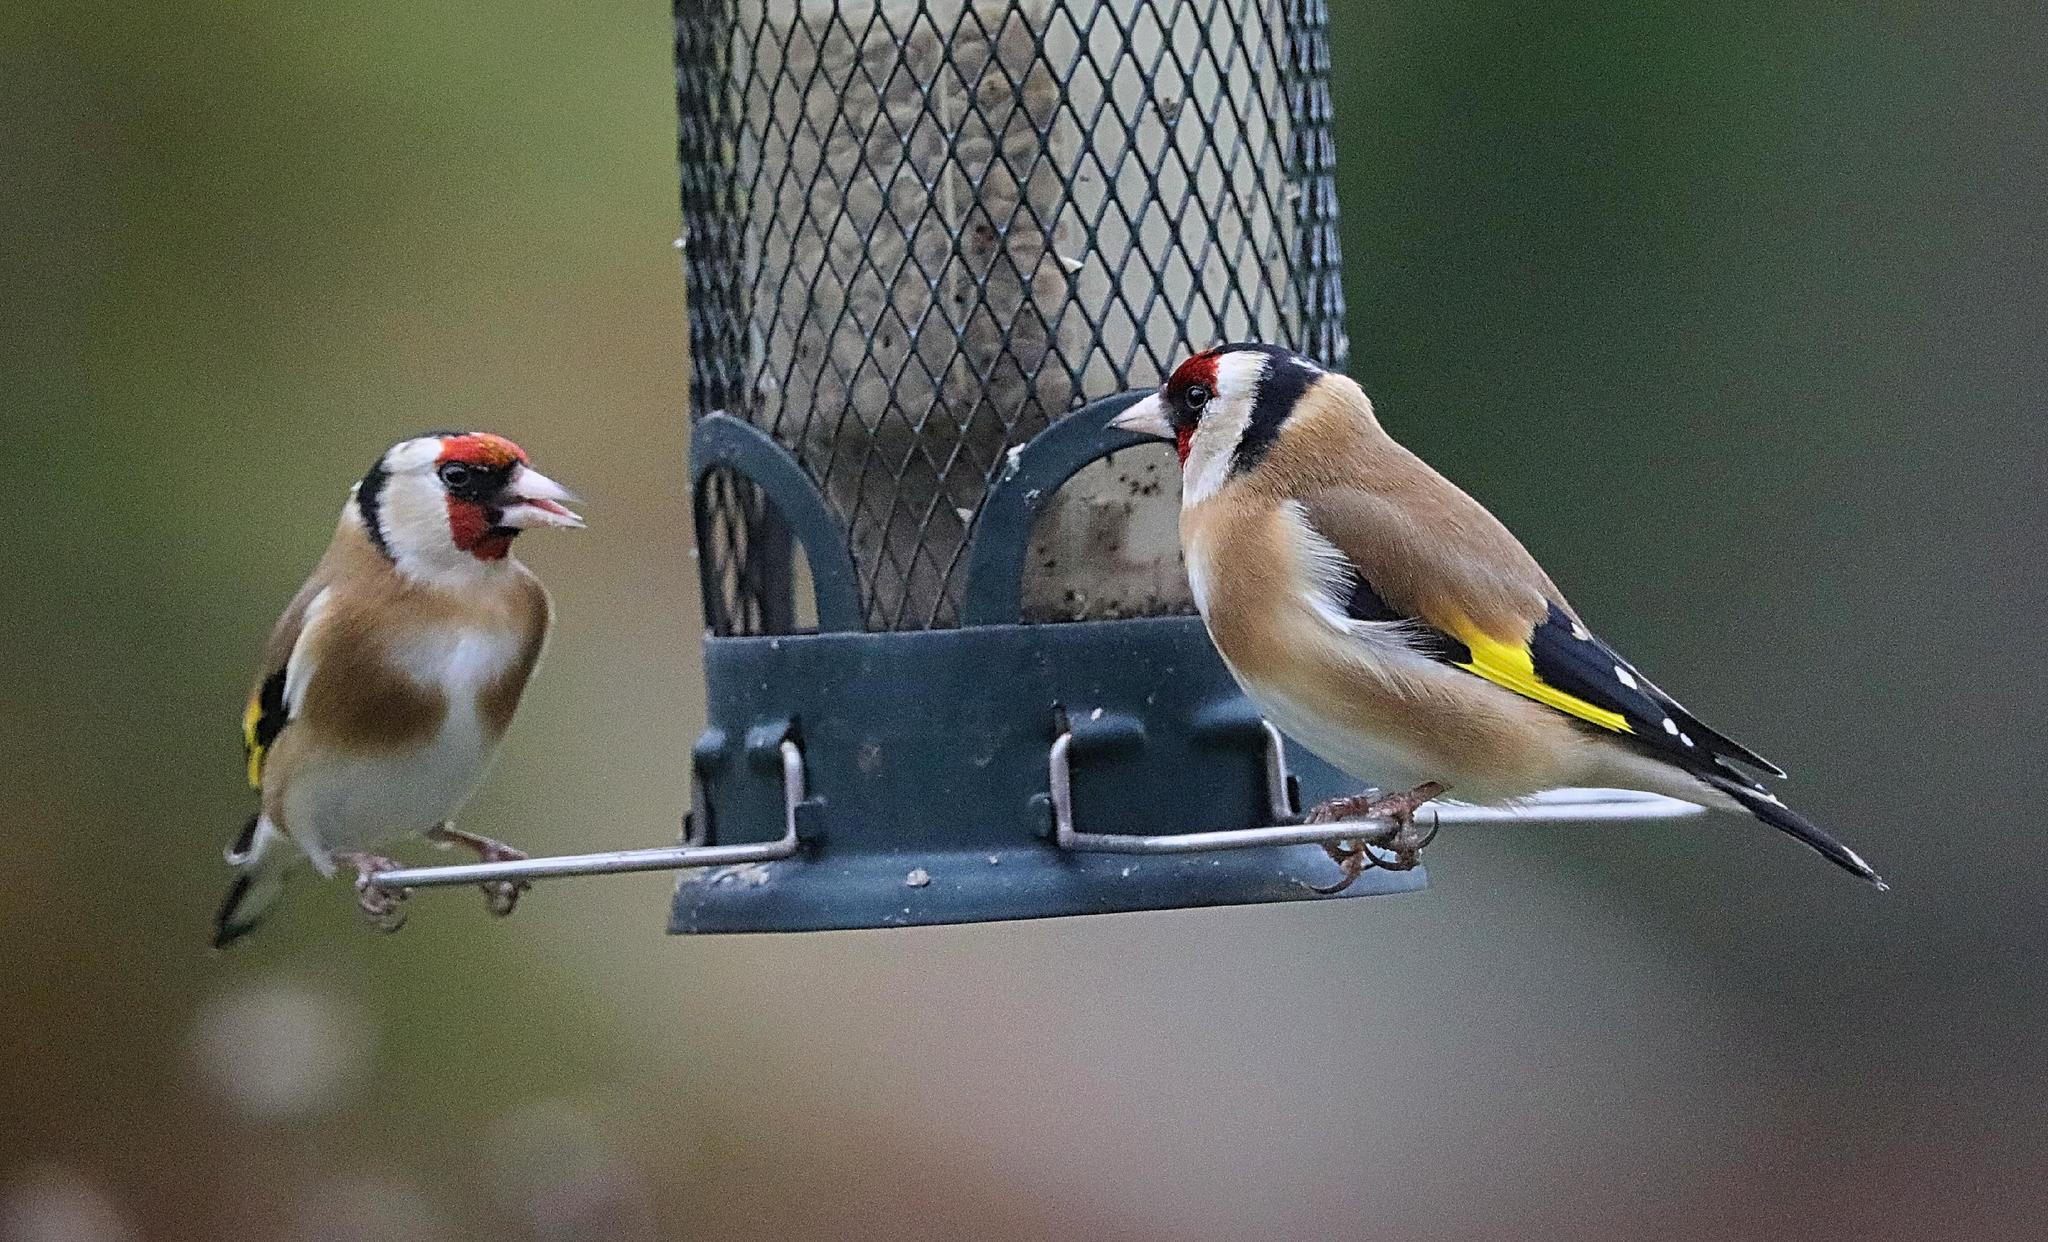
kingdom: Animalia
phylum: Chordata
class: Aves
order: Passeriformes
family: Fringillidae
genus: Carduelis
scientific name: Carduelis carduelis
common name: European goldfinch
